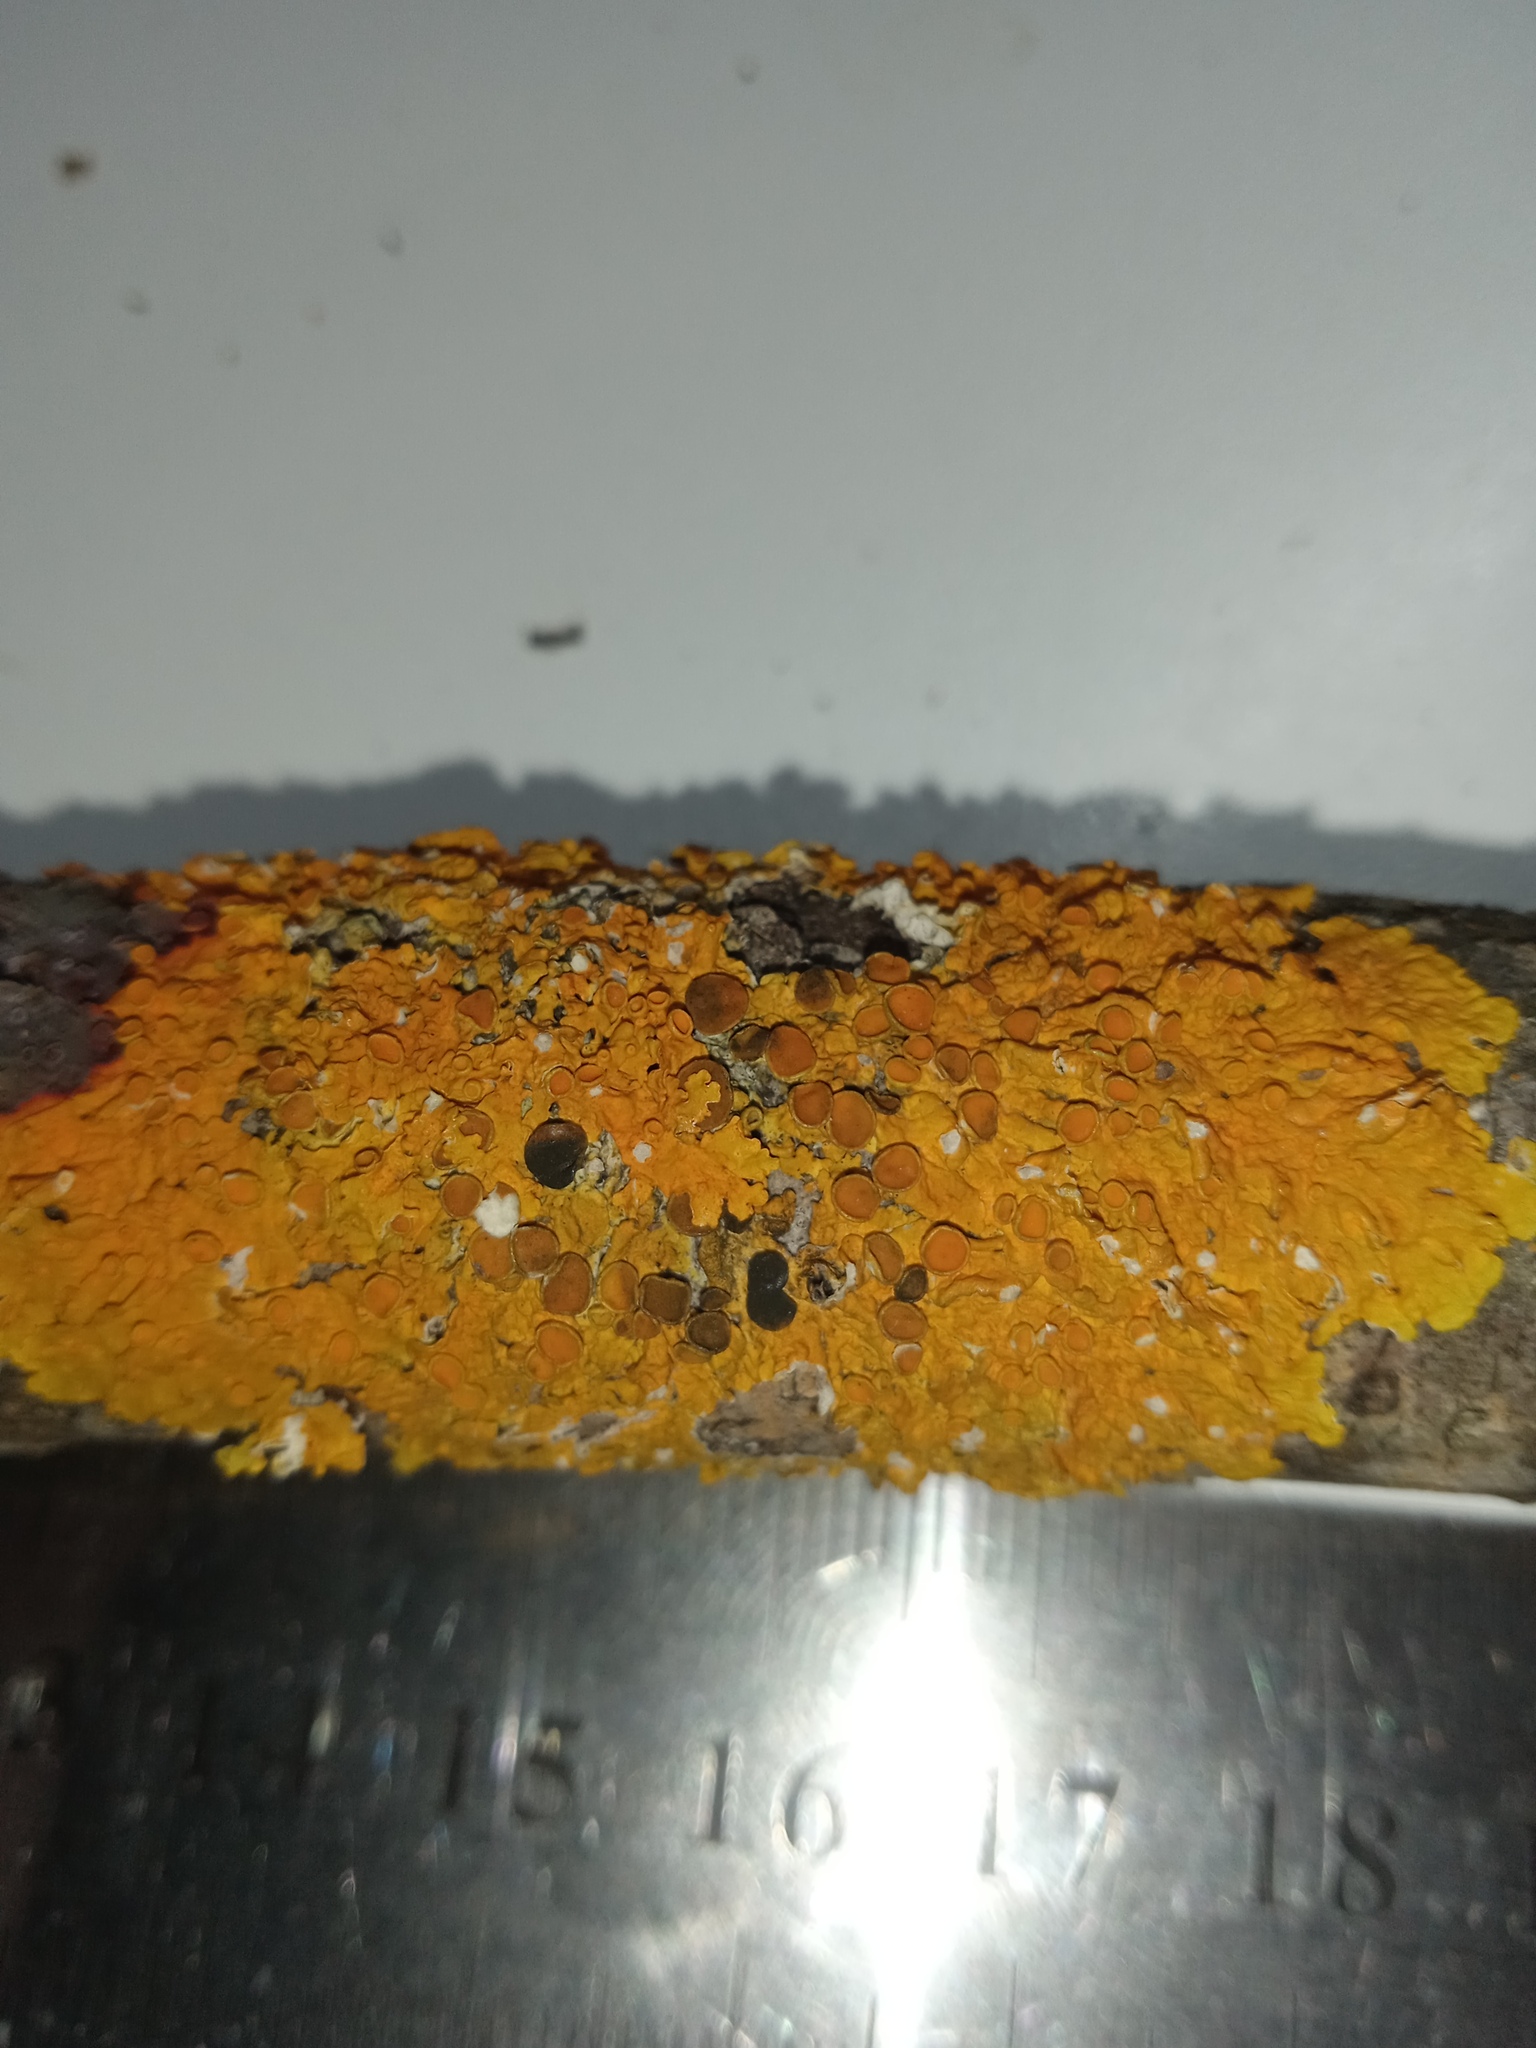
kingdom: Fungi
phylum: Ascomycota
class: Lecanoromycetes
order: Teloschistales
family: Teloschistaceae
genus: Xanthoria
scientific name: Xanthoria parietina
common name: Common orange lichen
